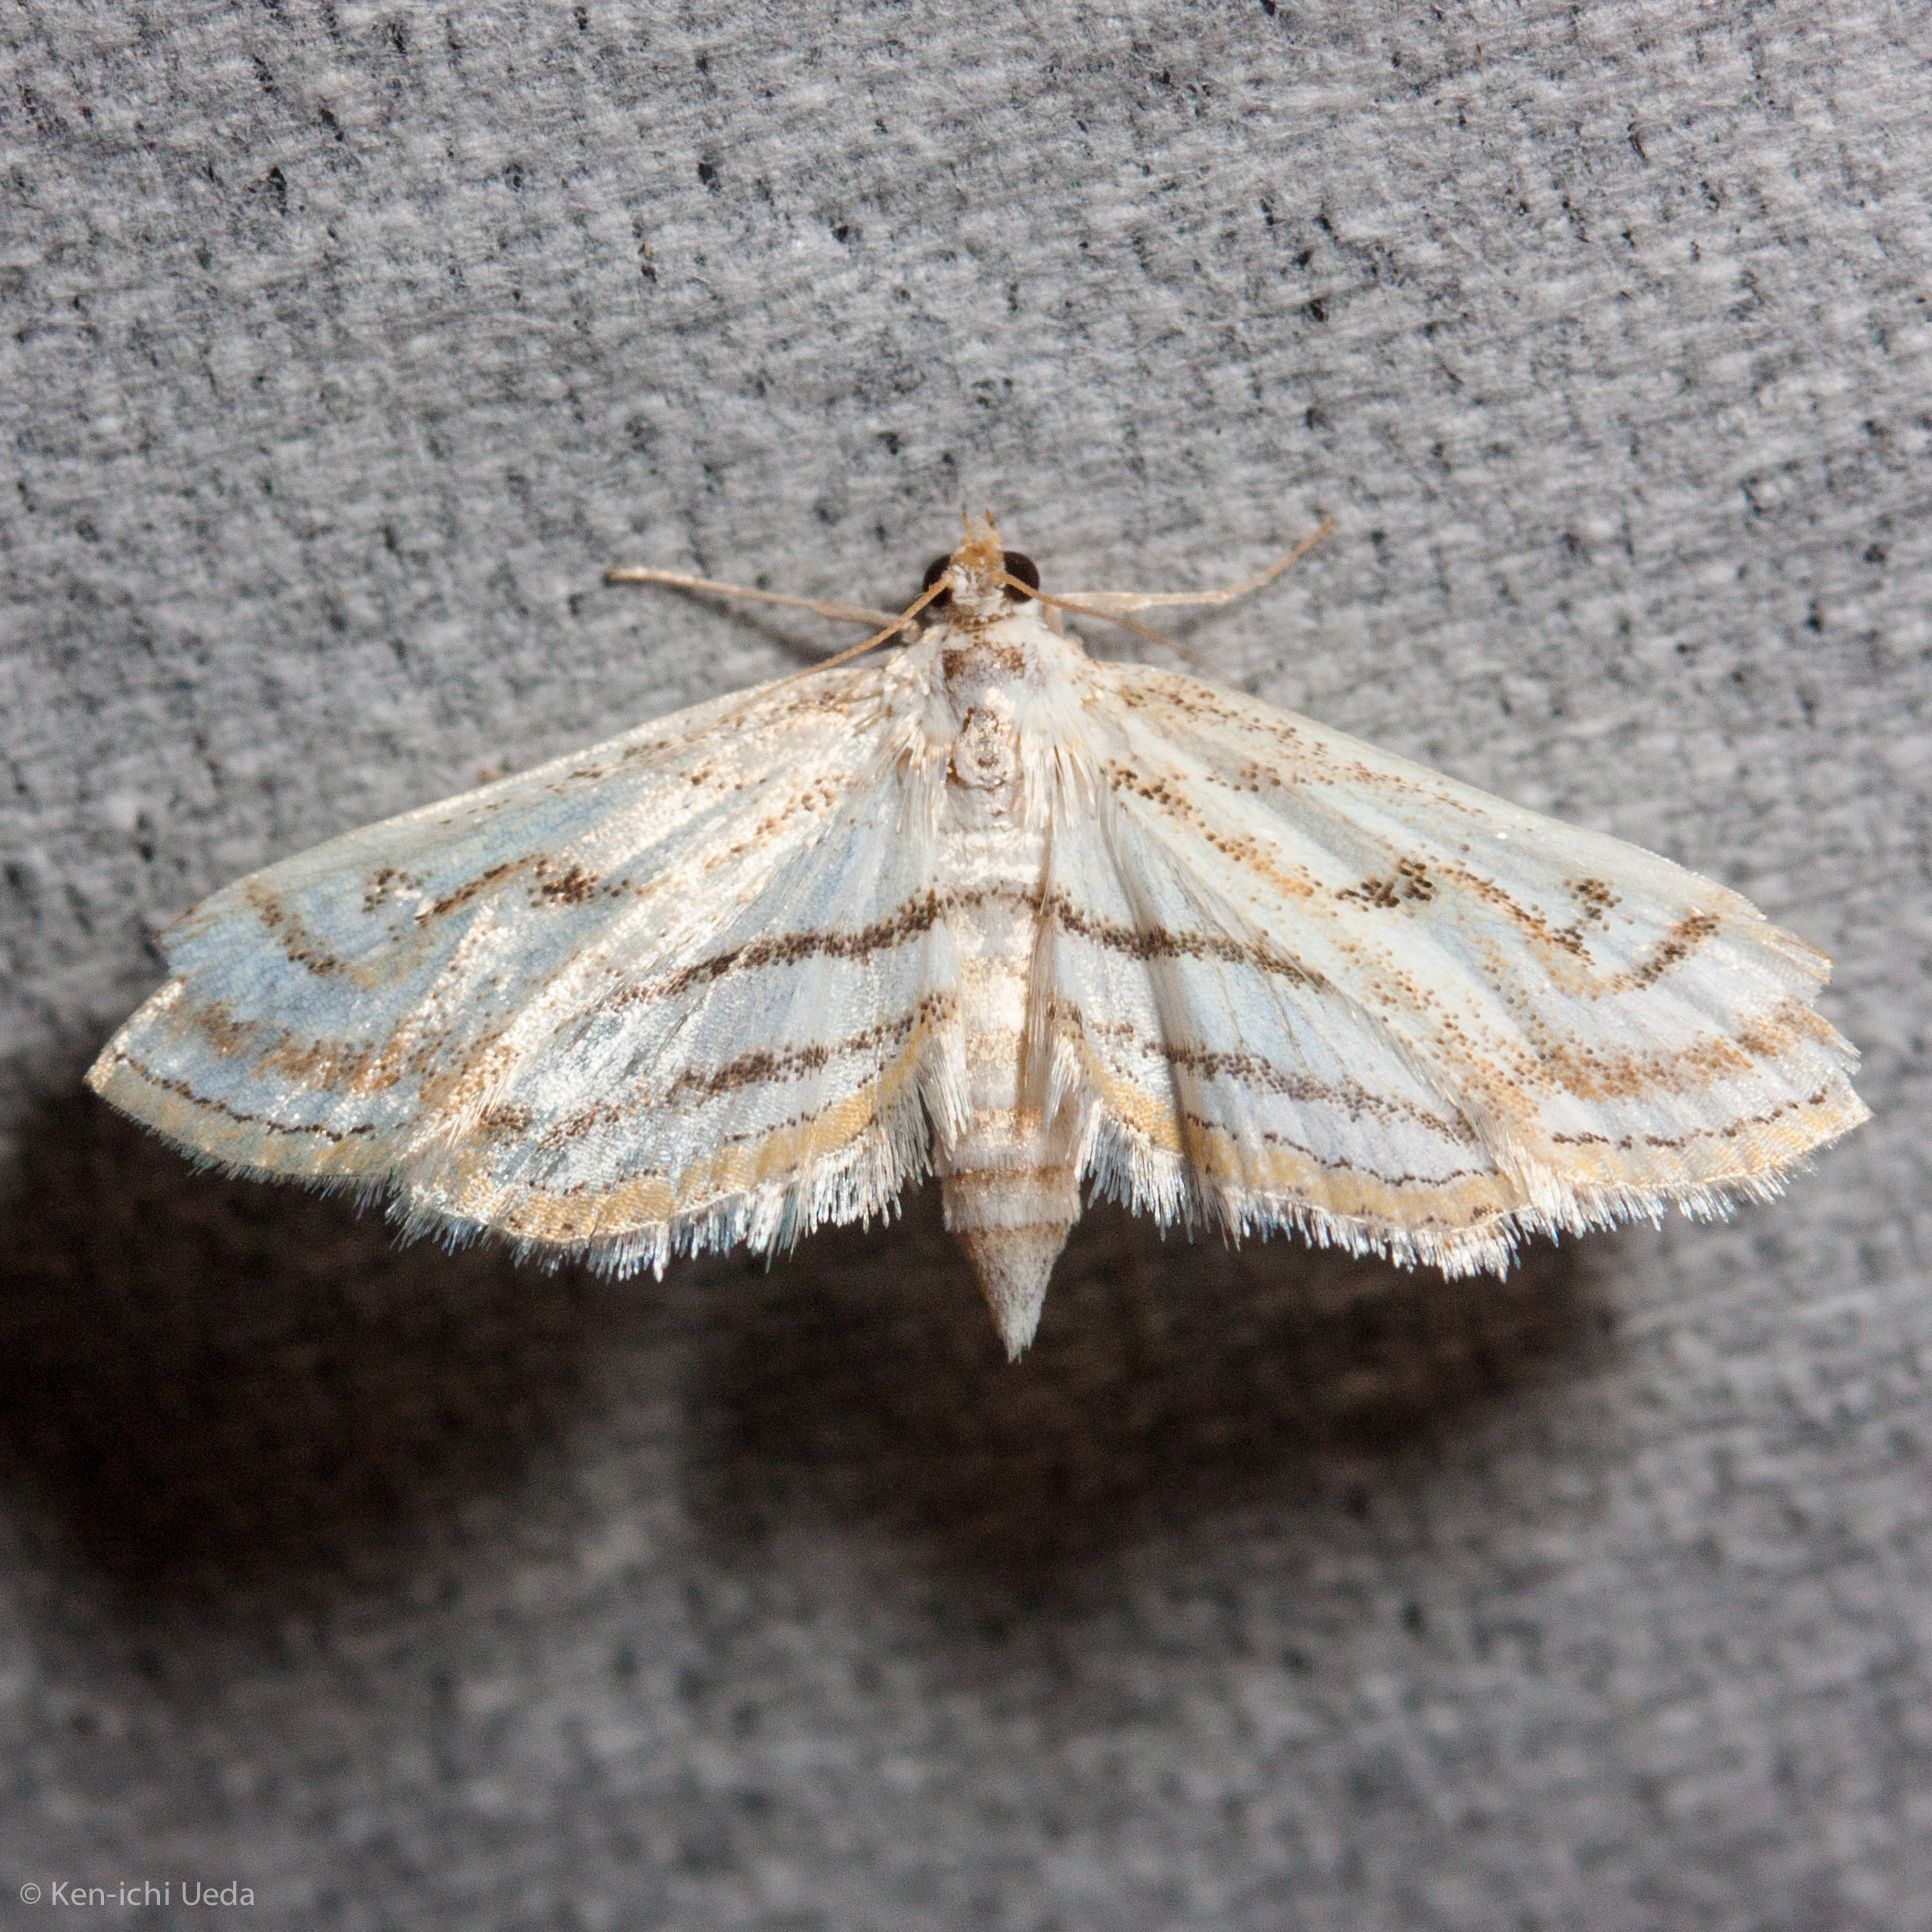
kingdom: Animalia
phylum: Arthropoda
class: Insecta
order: Lepidoptera
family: Crambidae
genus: Parapoynx
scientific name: Parapoynx badiusalis
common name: Chestnut-marked pondweed moth
